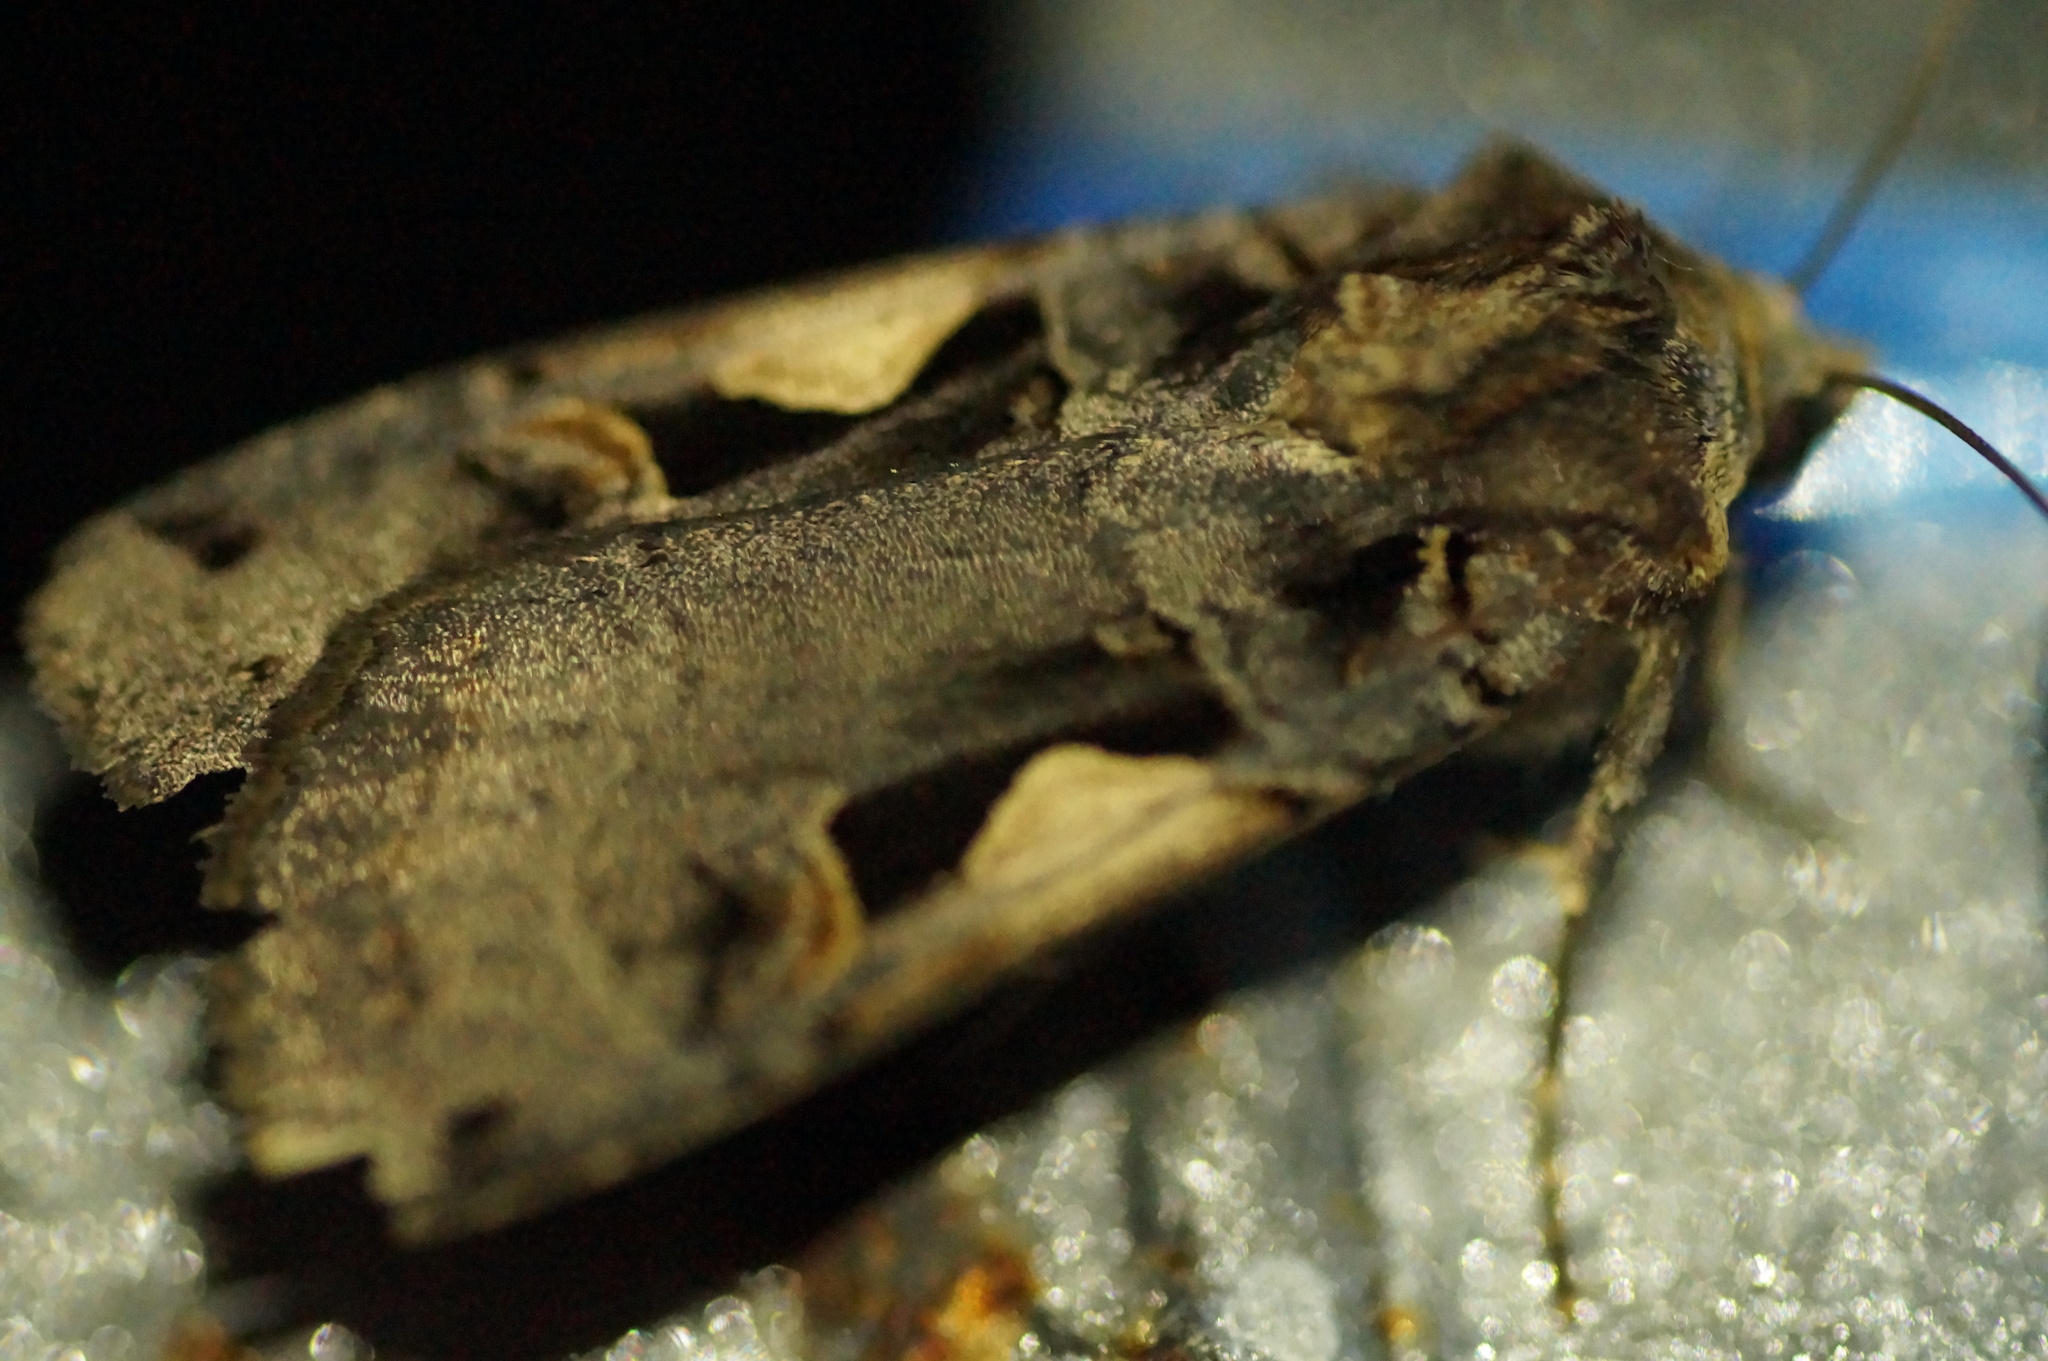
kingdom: Animalia
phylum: Arthropoda
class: Insecta
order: Lepidoptera
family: Noctuidae
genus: Xestia
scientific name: Xestia c-nigrum
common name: Setaceous hebrew character
